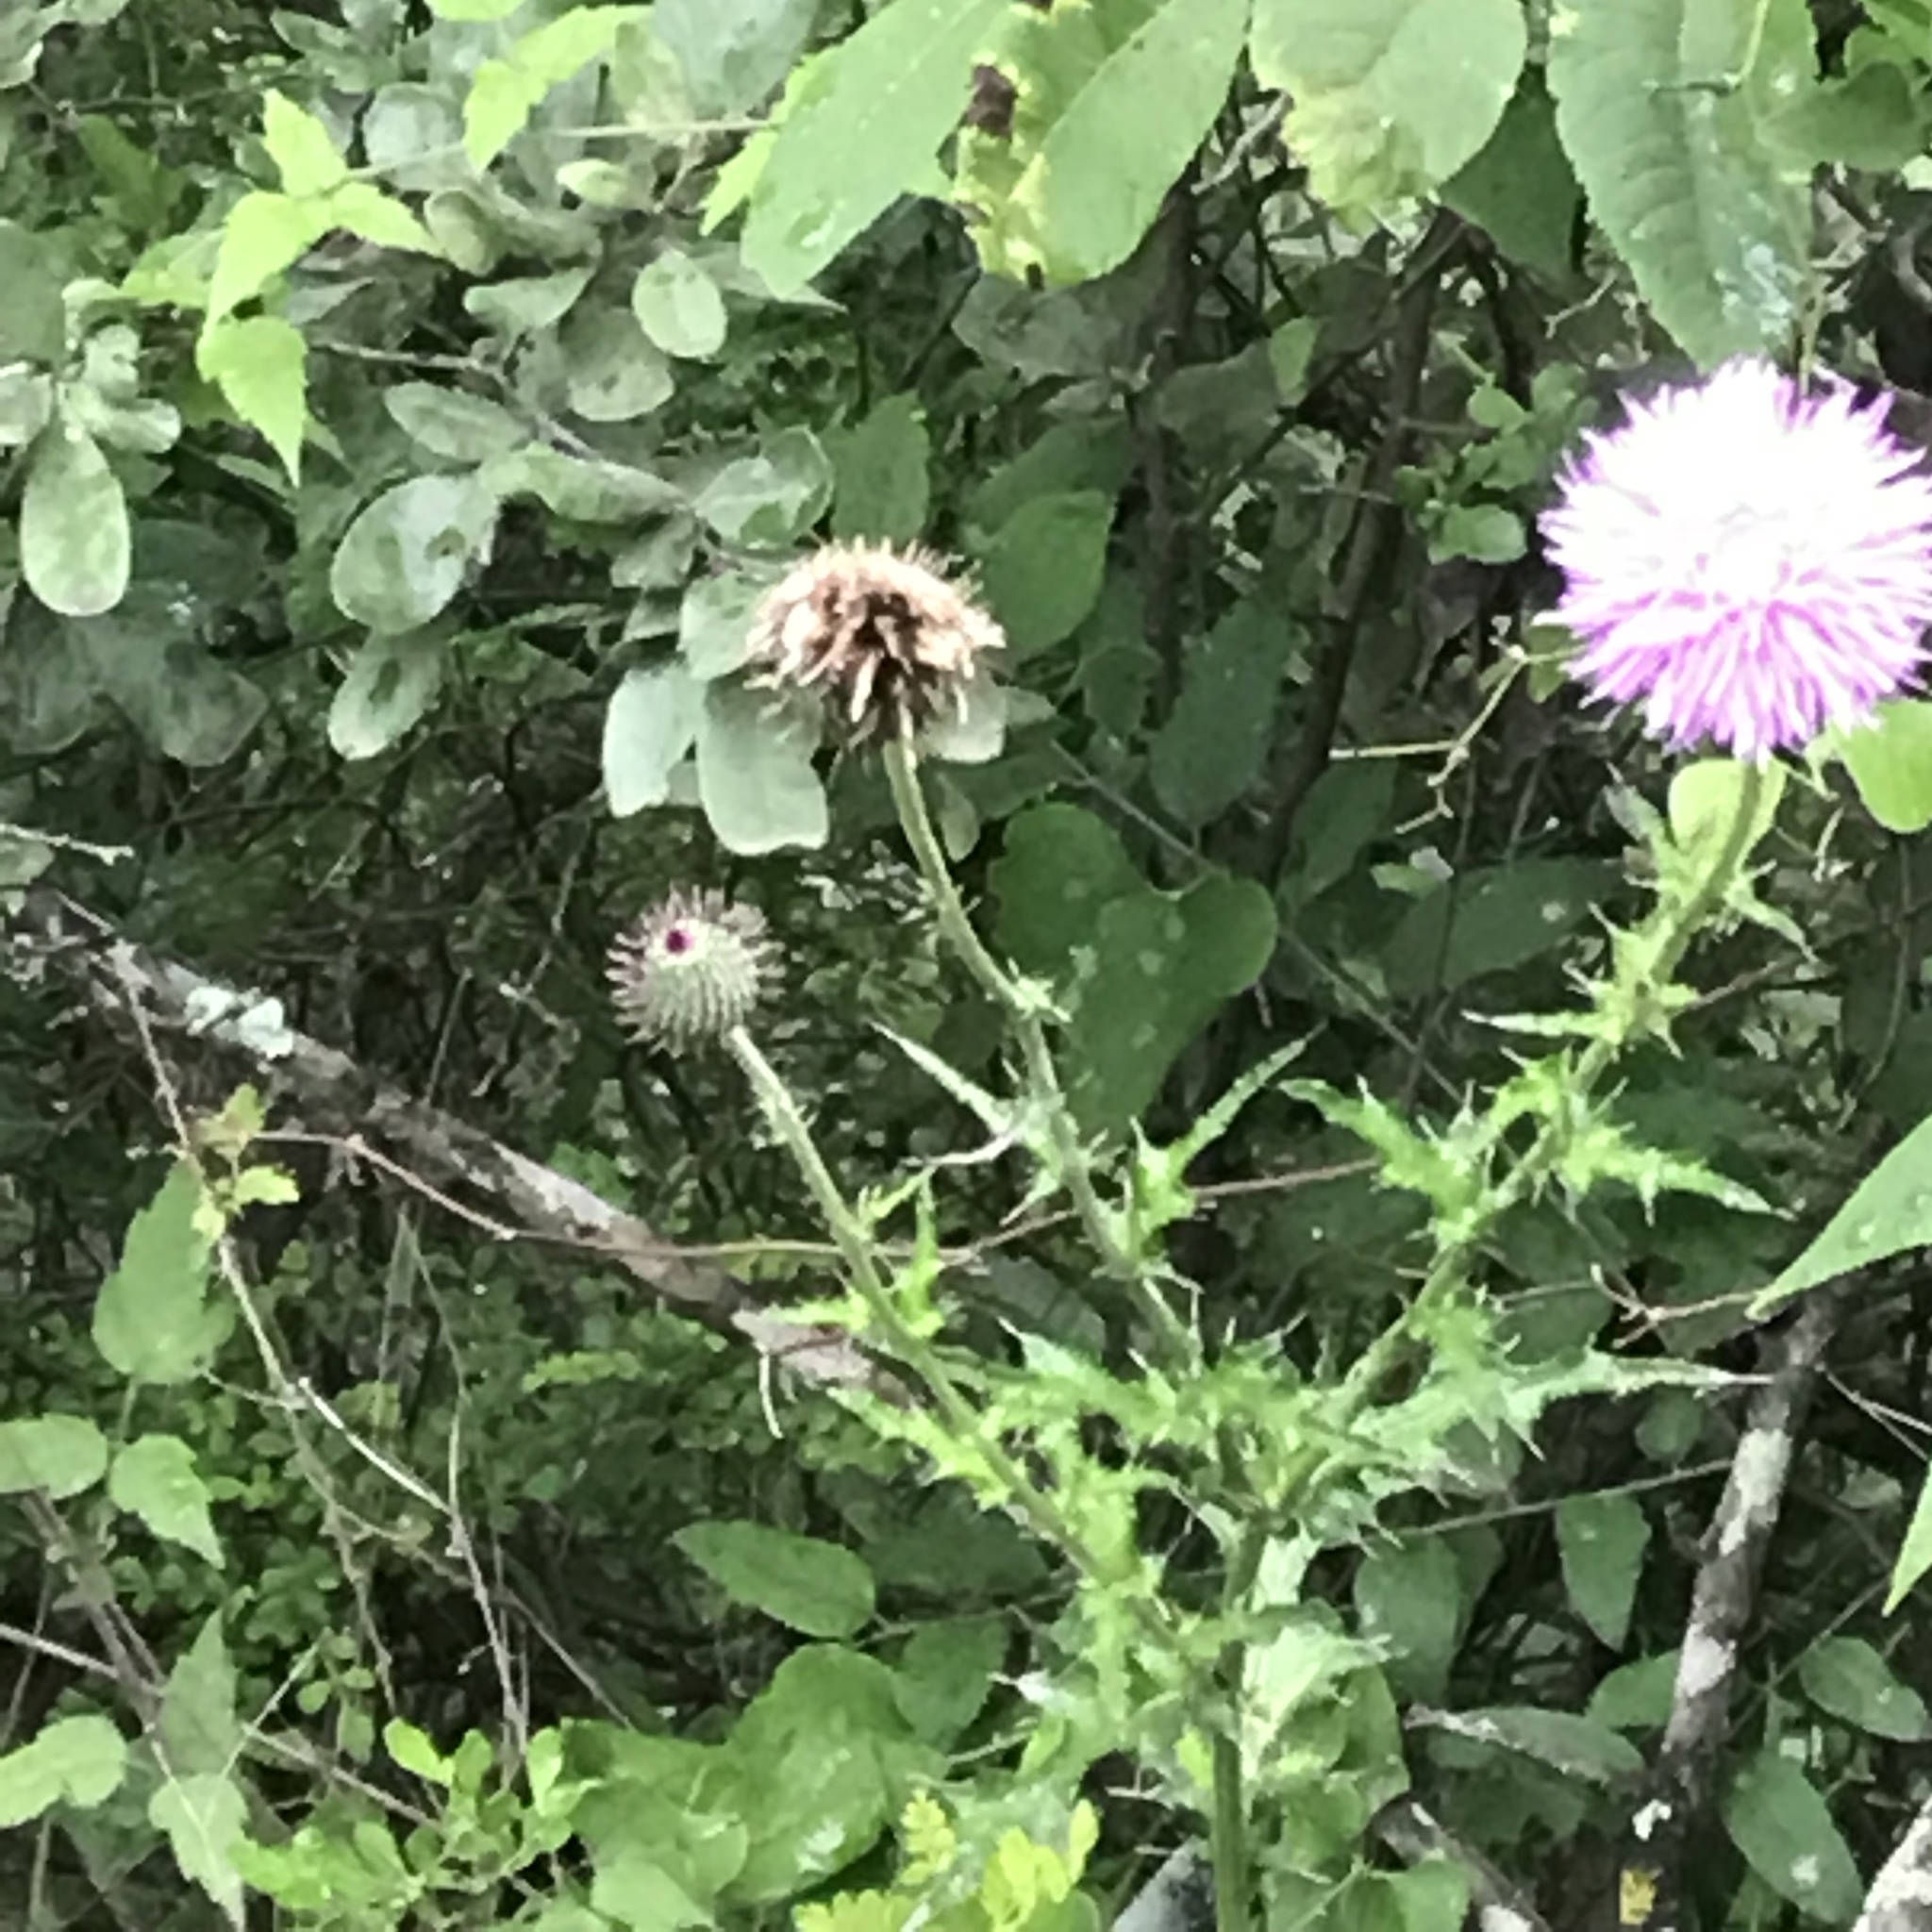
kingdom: Plantae
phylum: Tracheophyta
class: Magnoliopsida
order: Asterales
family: Asteraceae
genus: Cirsium
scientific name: Cirsium texanum
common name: Texas purple thistle
